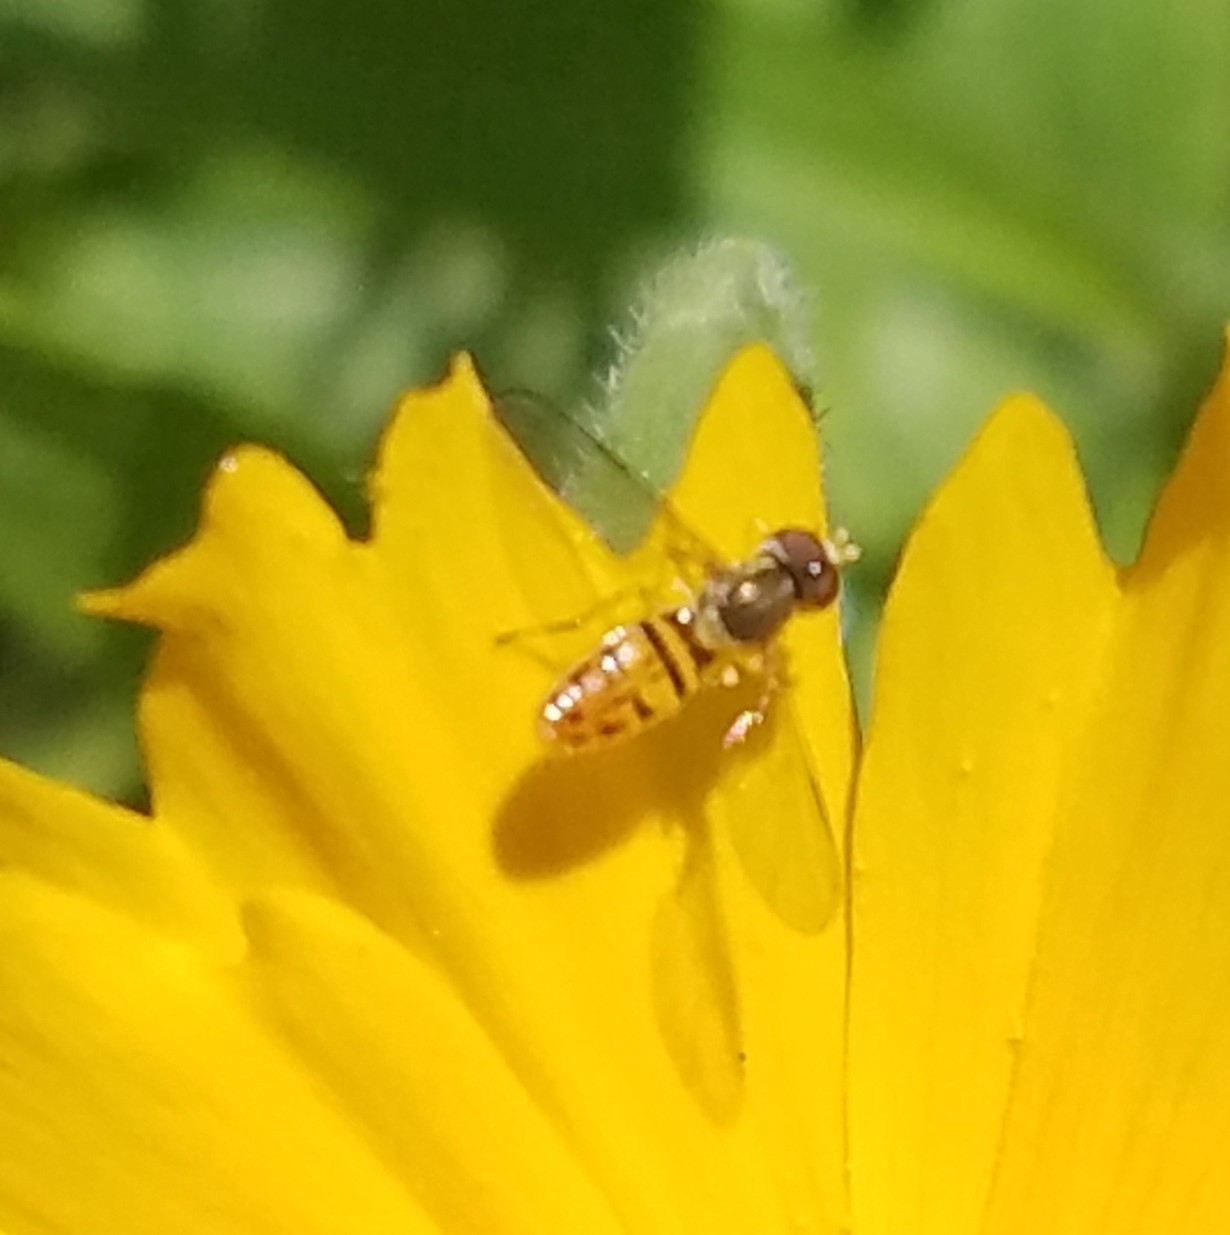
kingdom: Animalia
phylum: Arthropoda
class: Insecta
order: Diptera
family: Syrphidae
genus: Toxomerus
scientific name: Toxomerus marginatus
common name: Syrphid fly
